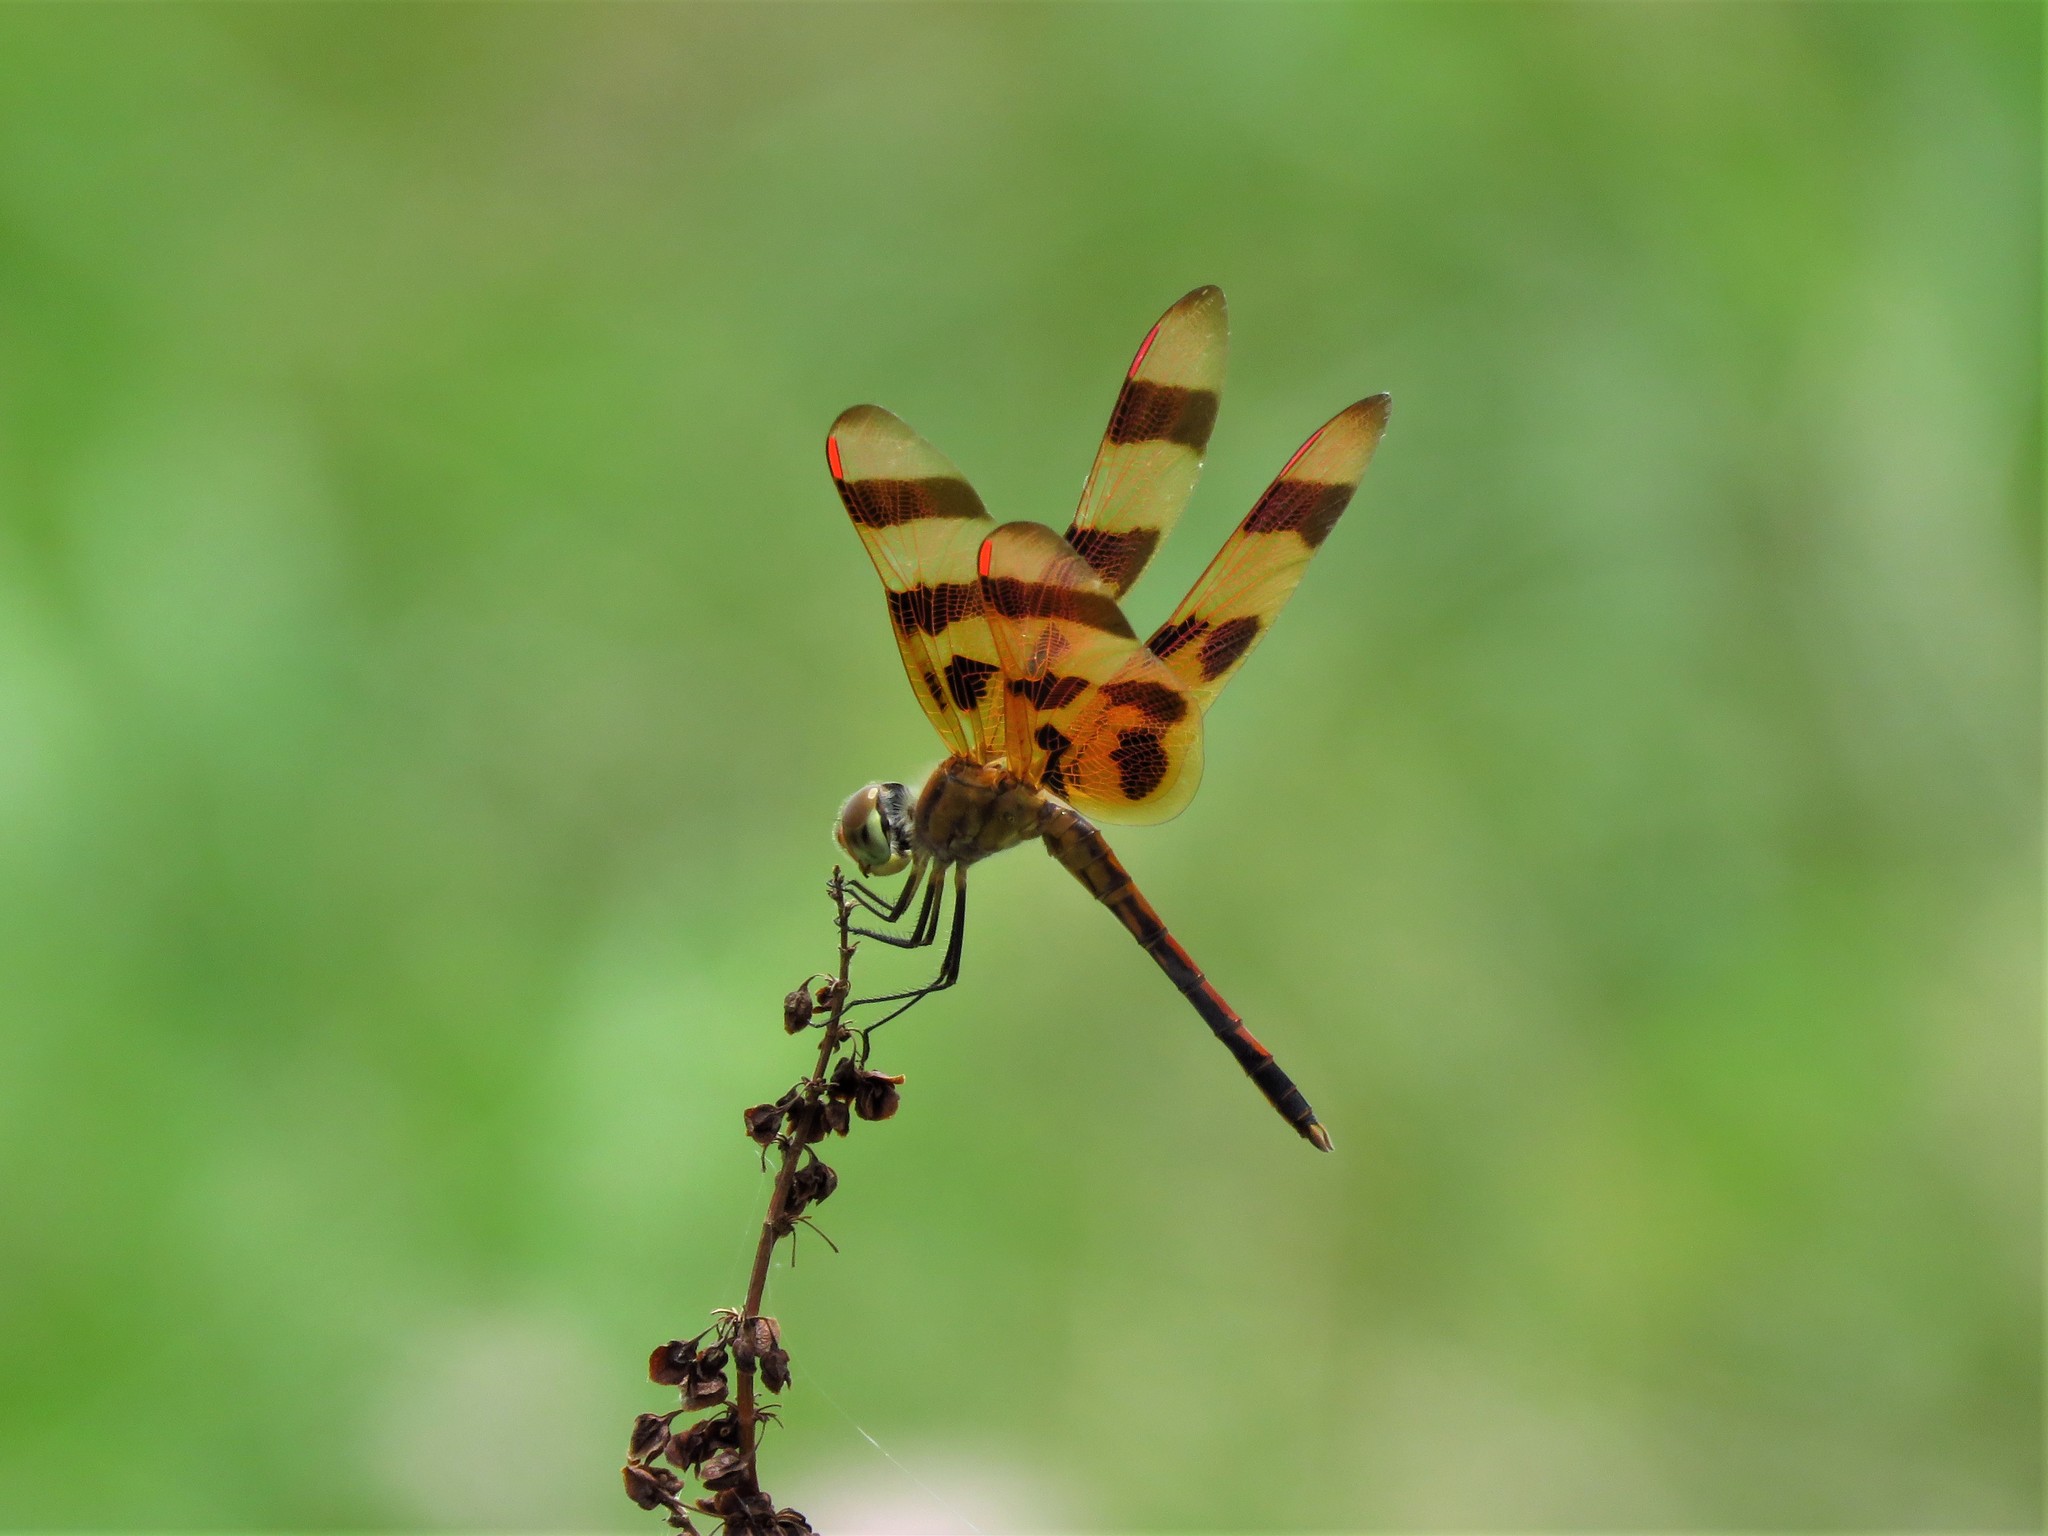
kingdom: Animalia
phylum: Arthropoda
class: Insecta
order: Odonata
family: Libellulidae
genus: Celithemis
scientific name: Celithemis eponina
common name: Halloween pennant
